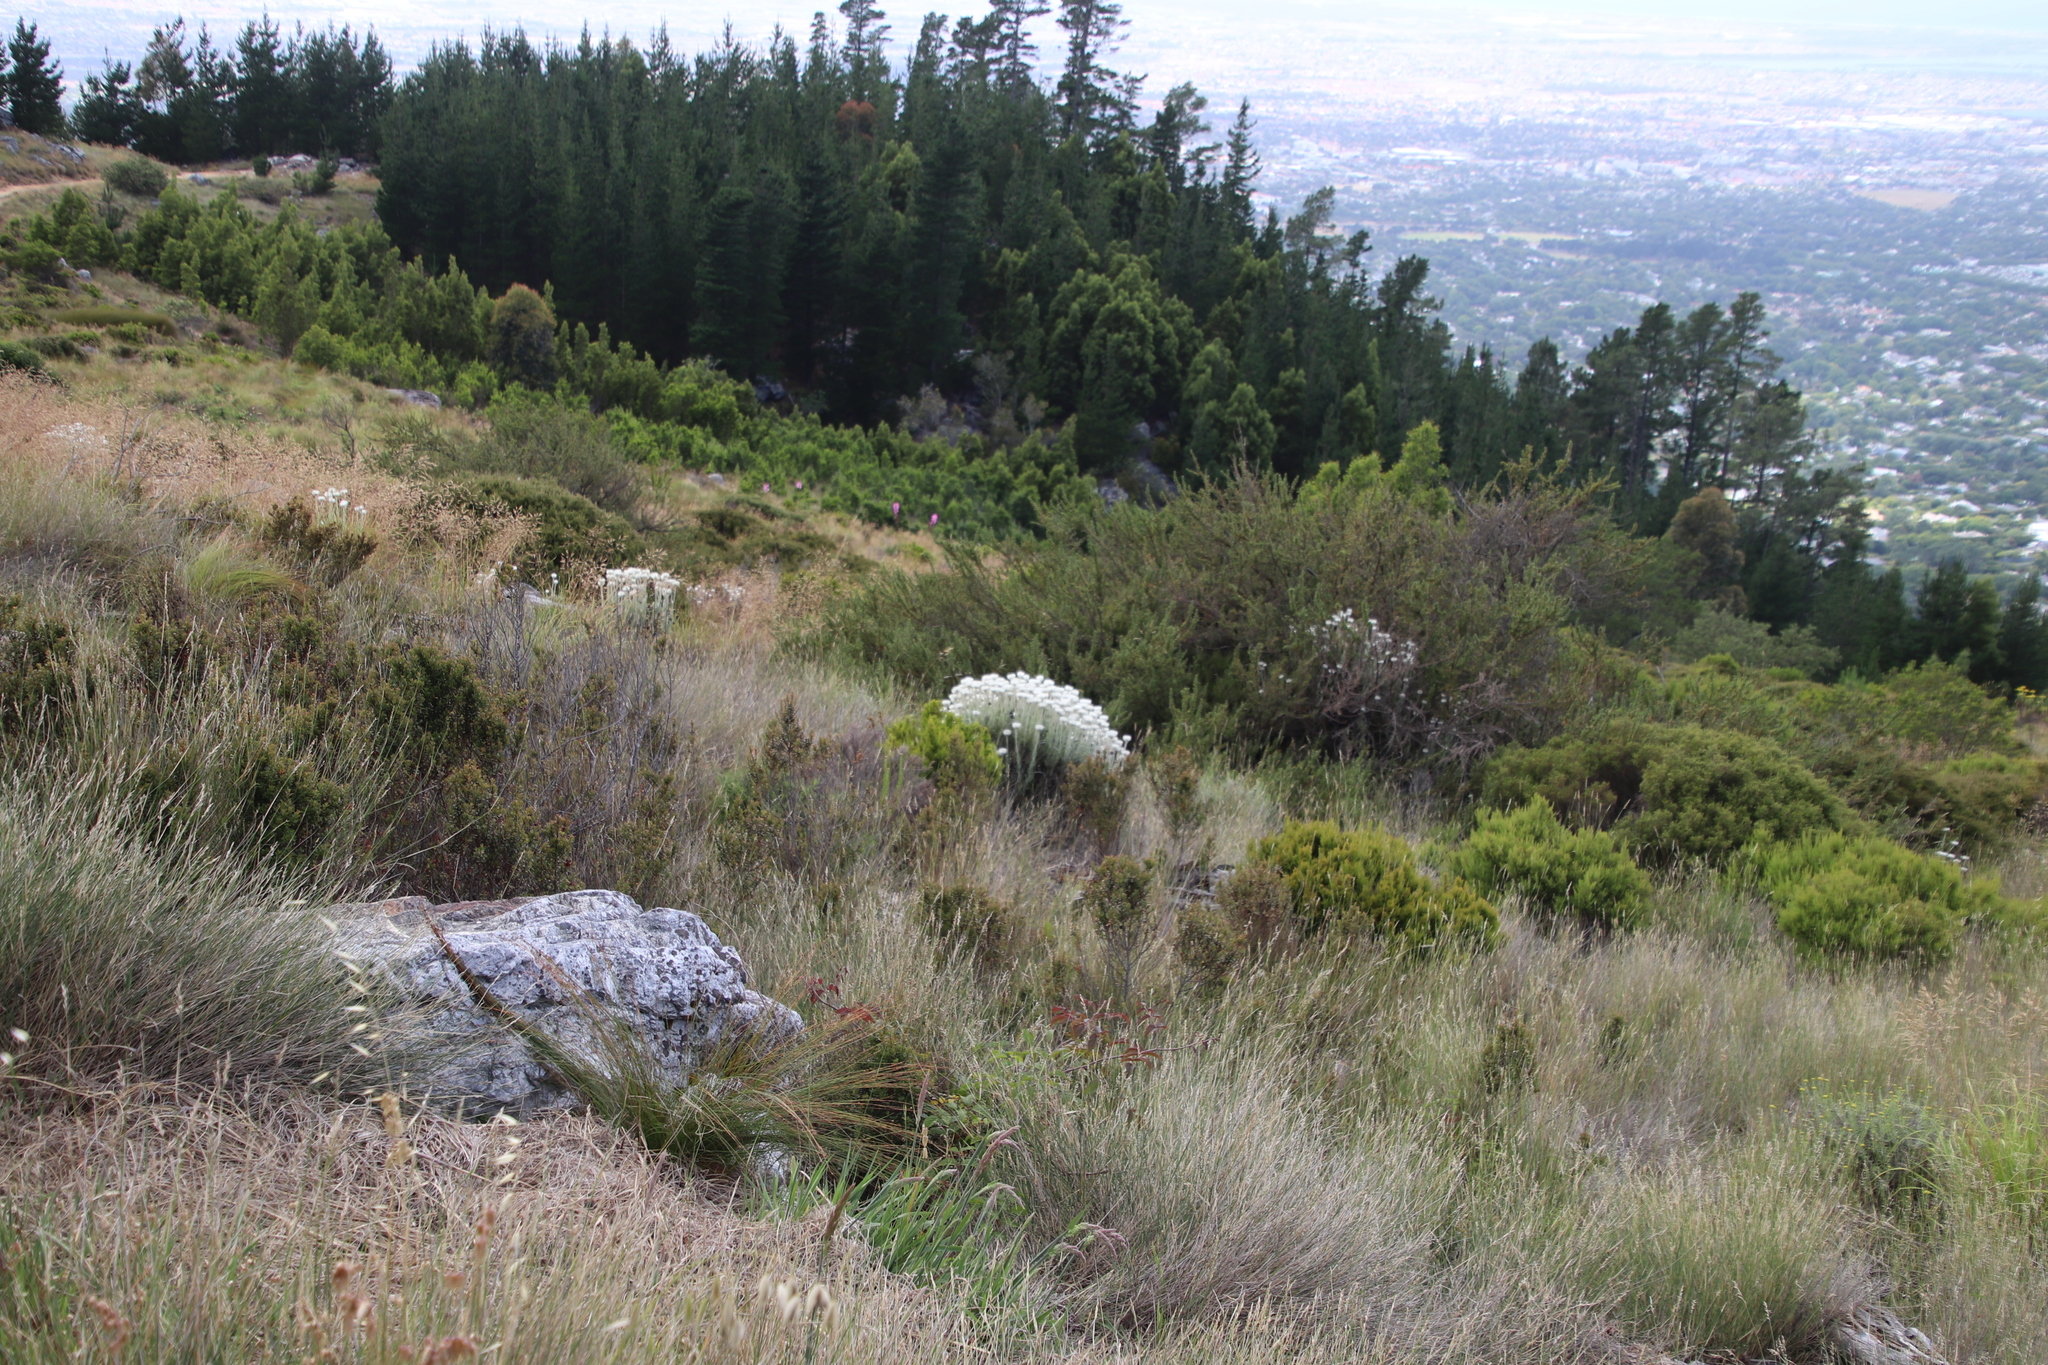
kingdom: Plantae
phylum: Tracheophyta
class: Magnoliopsida
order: Asterales
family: Asteraceae
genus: Syncarpha
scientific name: Syncarpha vestita
